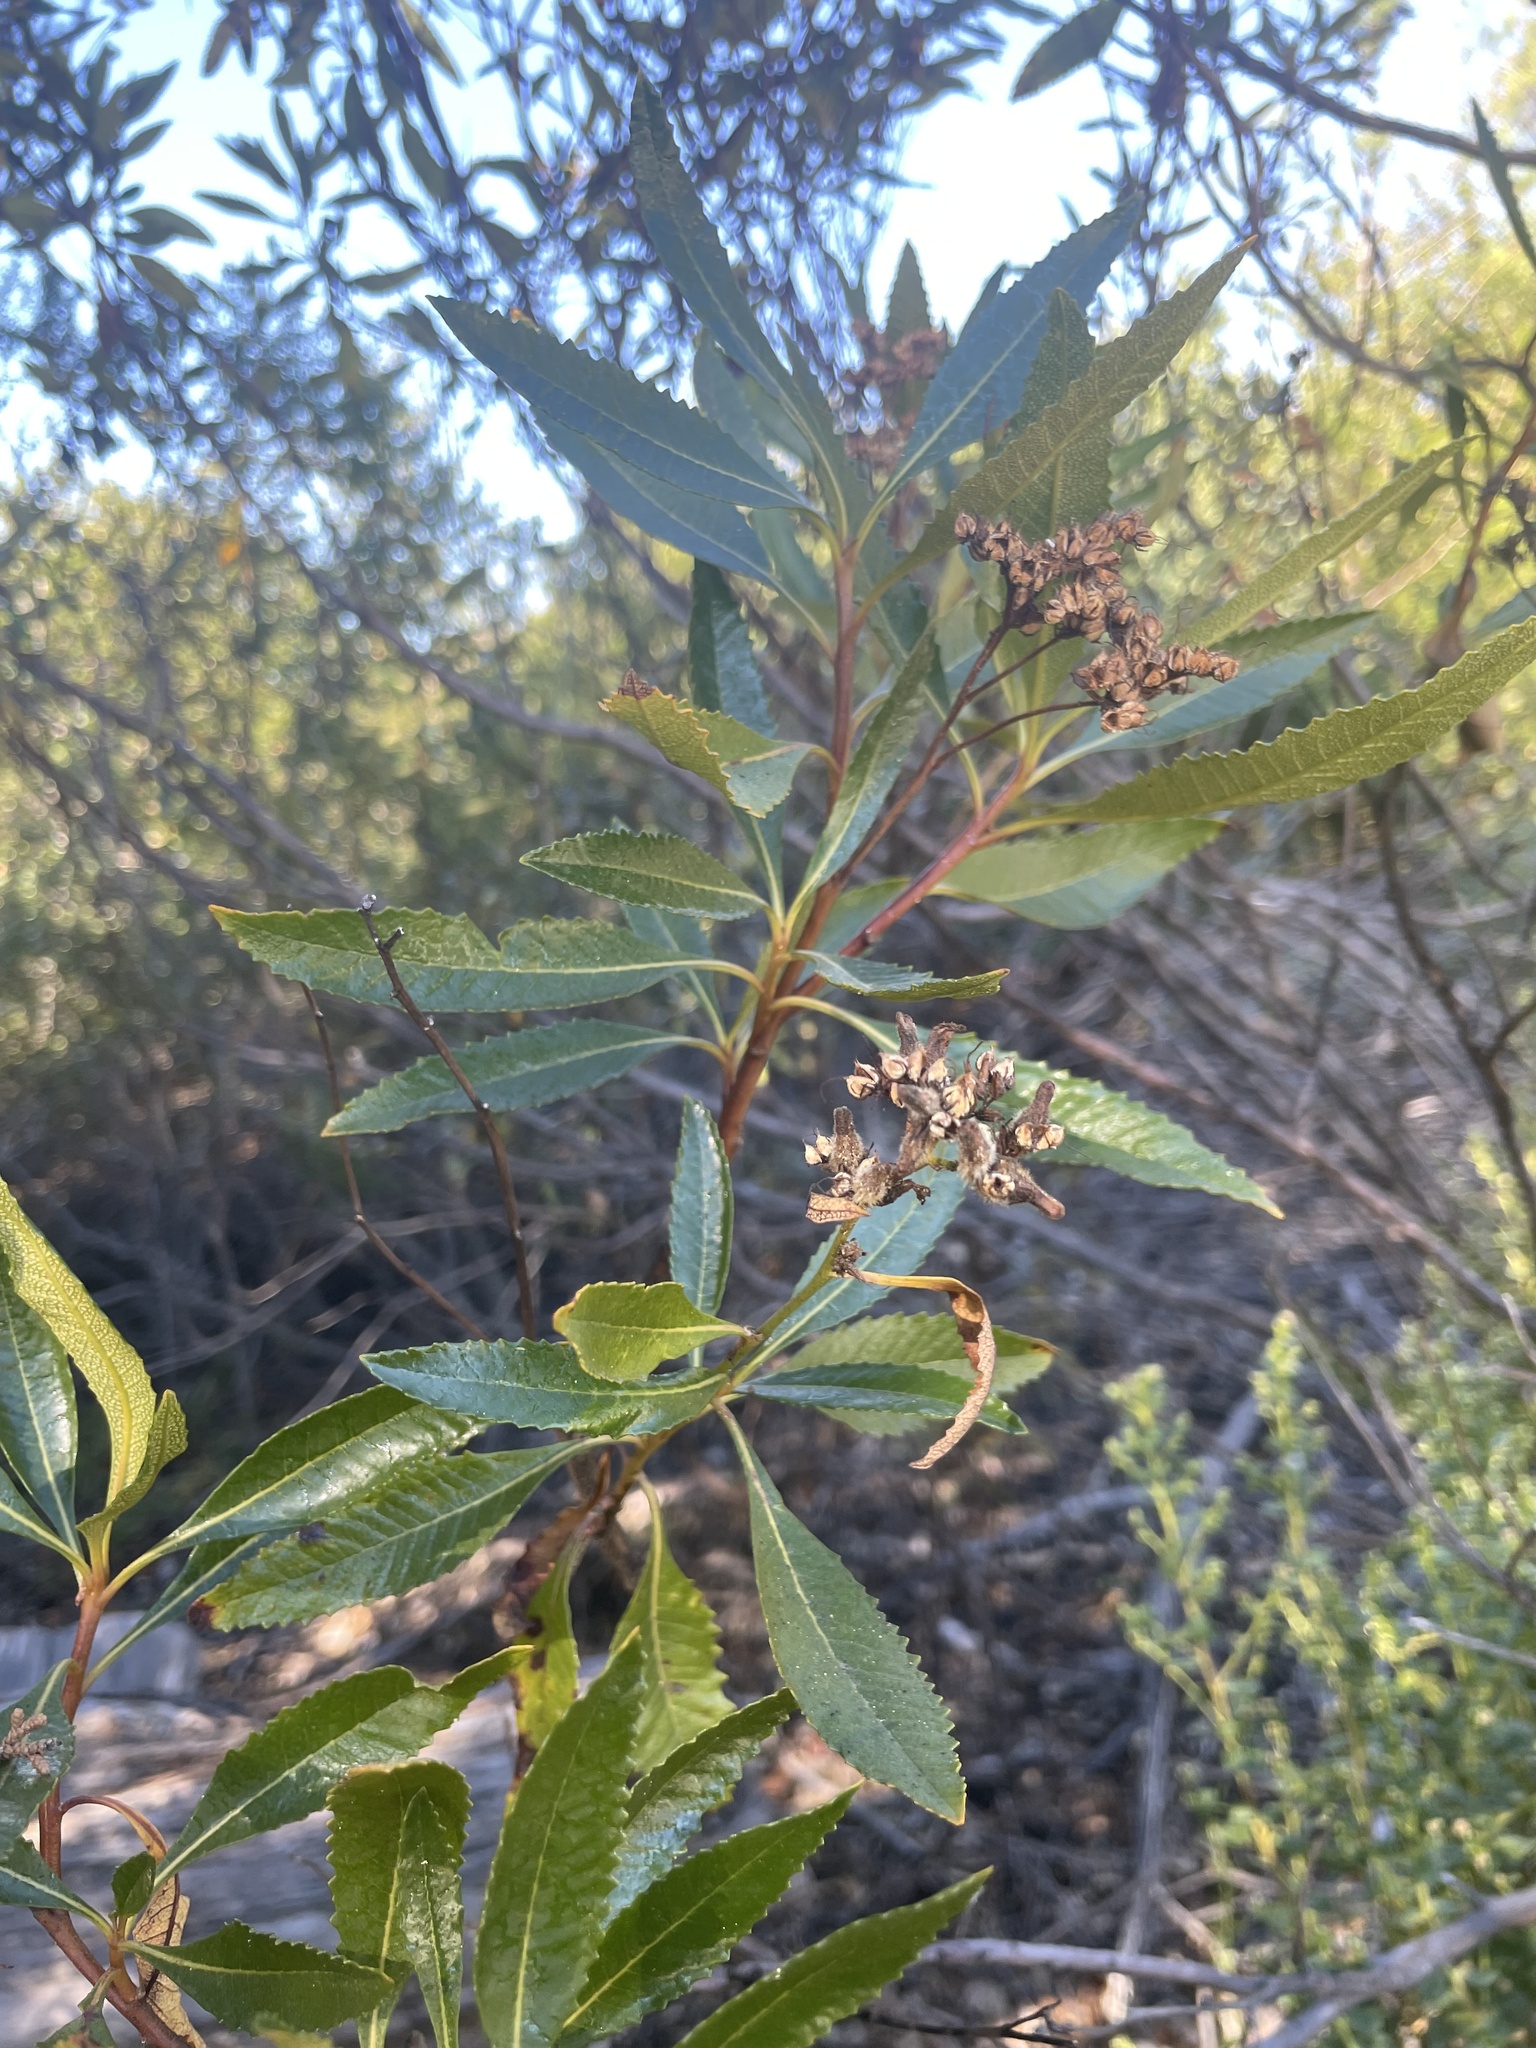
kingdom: Plantae
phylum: Tracheophyta
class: Magnoliopsida
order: Boraginales
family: Namaceae
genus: Eriodictyon
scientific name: Eriodictyon californicum
